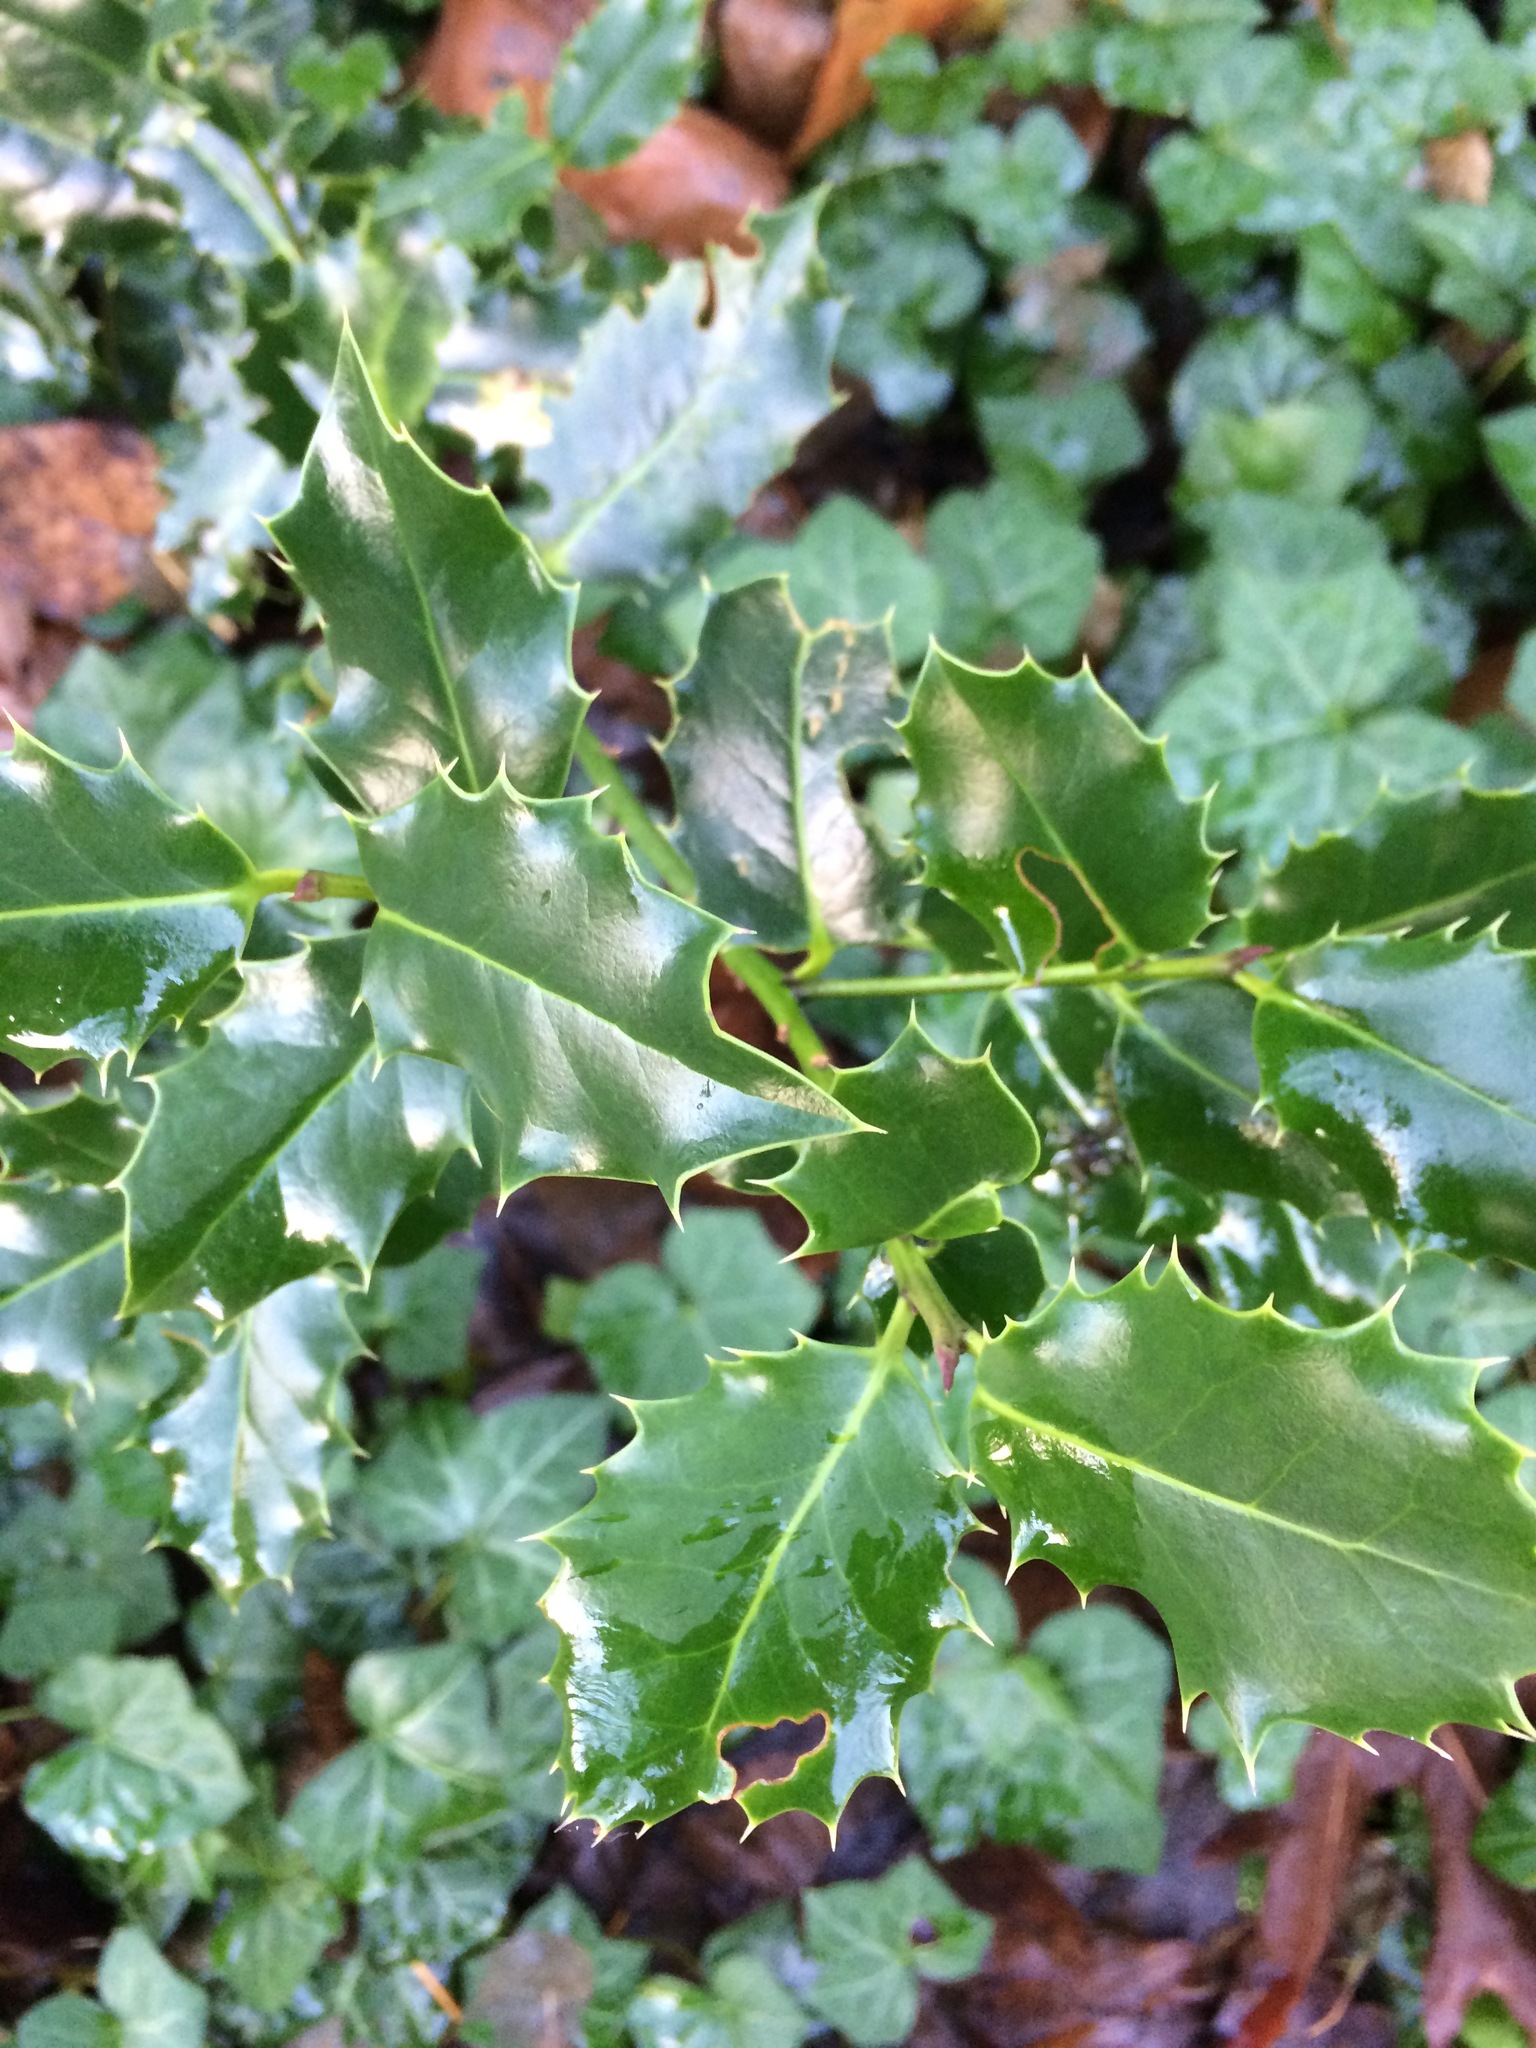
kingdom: Plantae
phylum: Tracheophyta
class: Magnoliopsida
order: Aquifoliales
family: Aquifoliaceae
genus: Ilex
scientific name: Ilex aquifolium
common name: English holly
